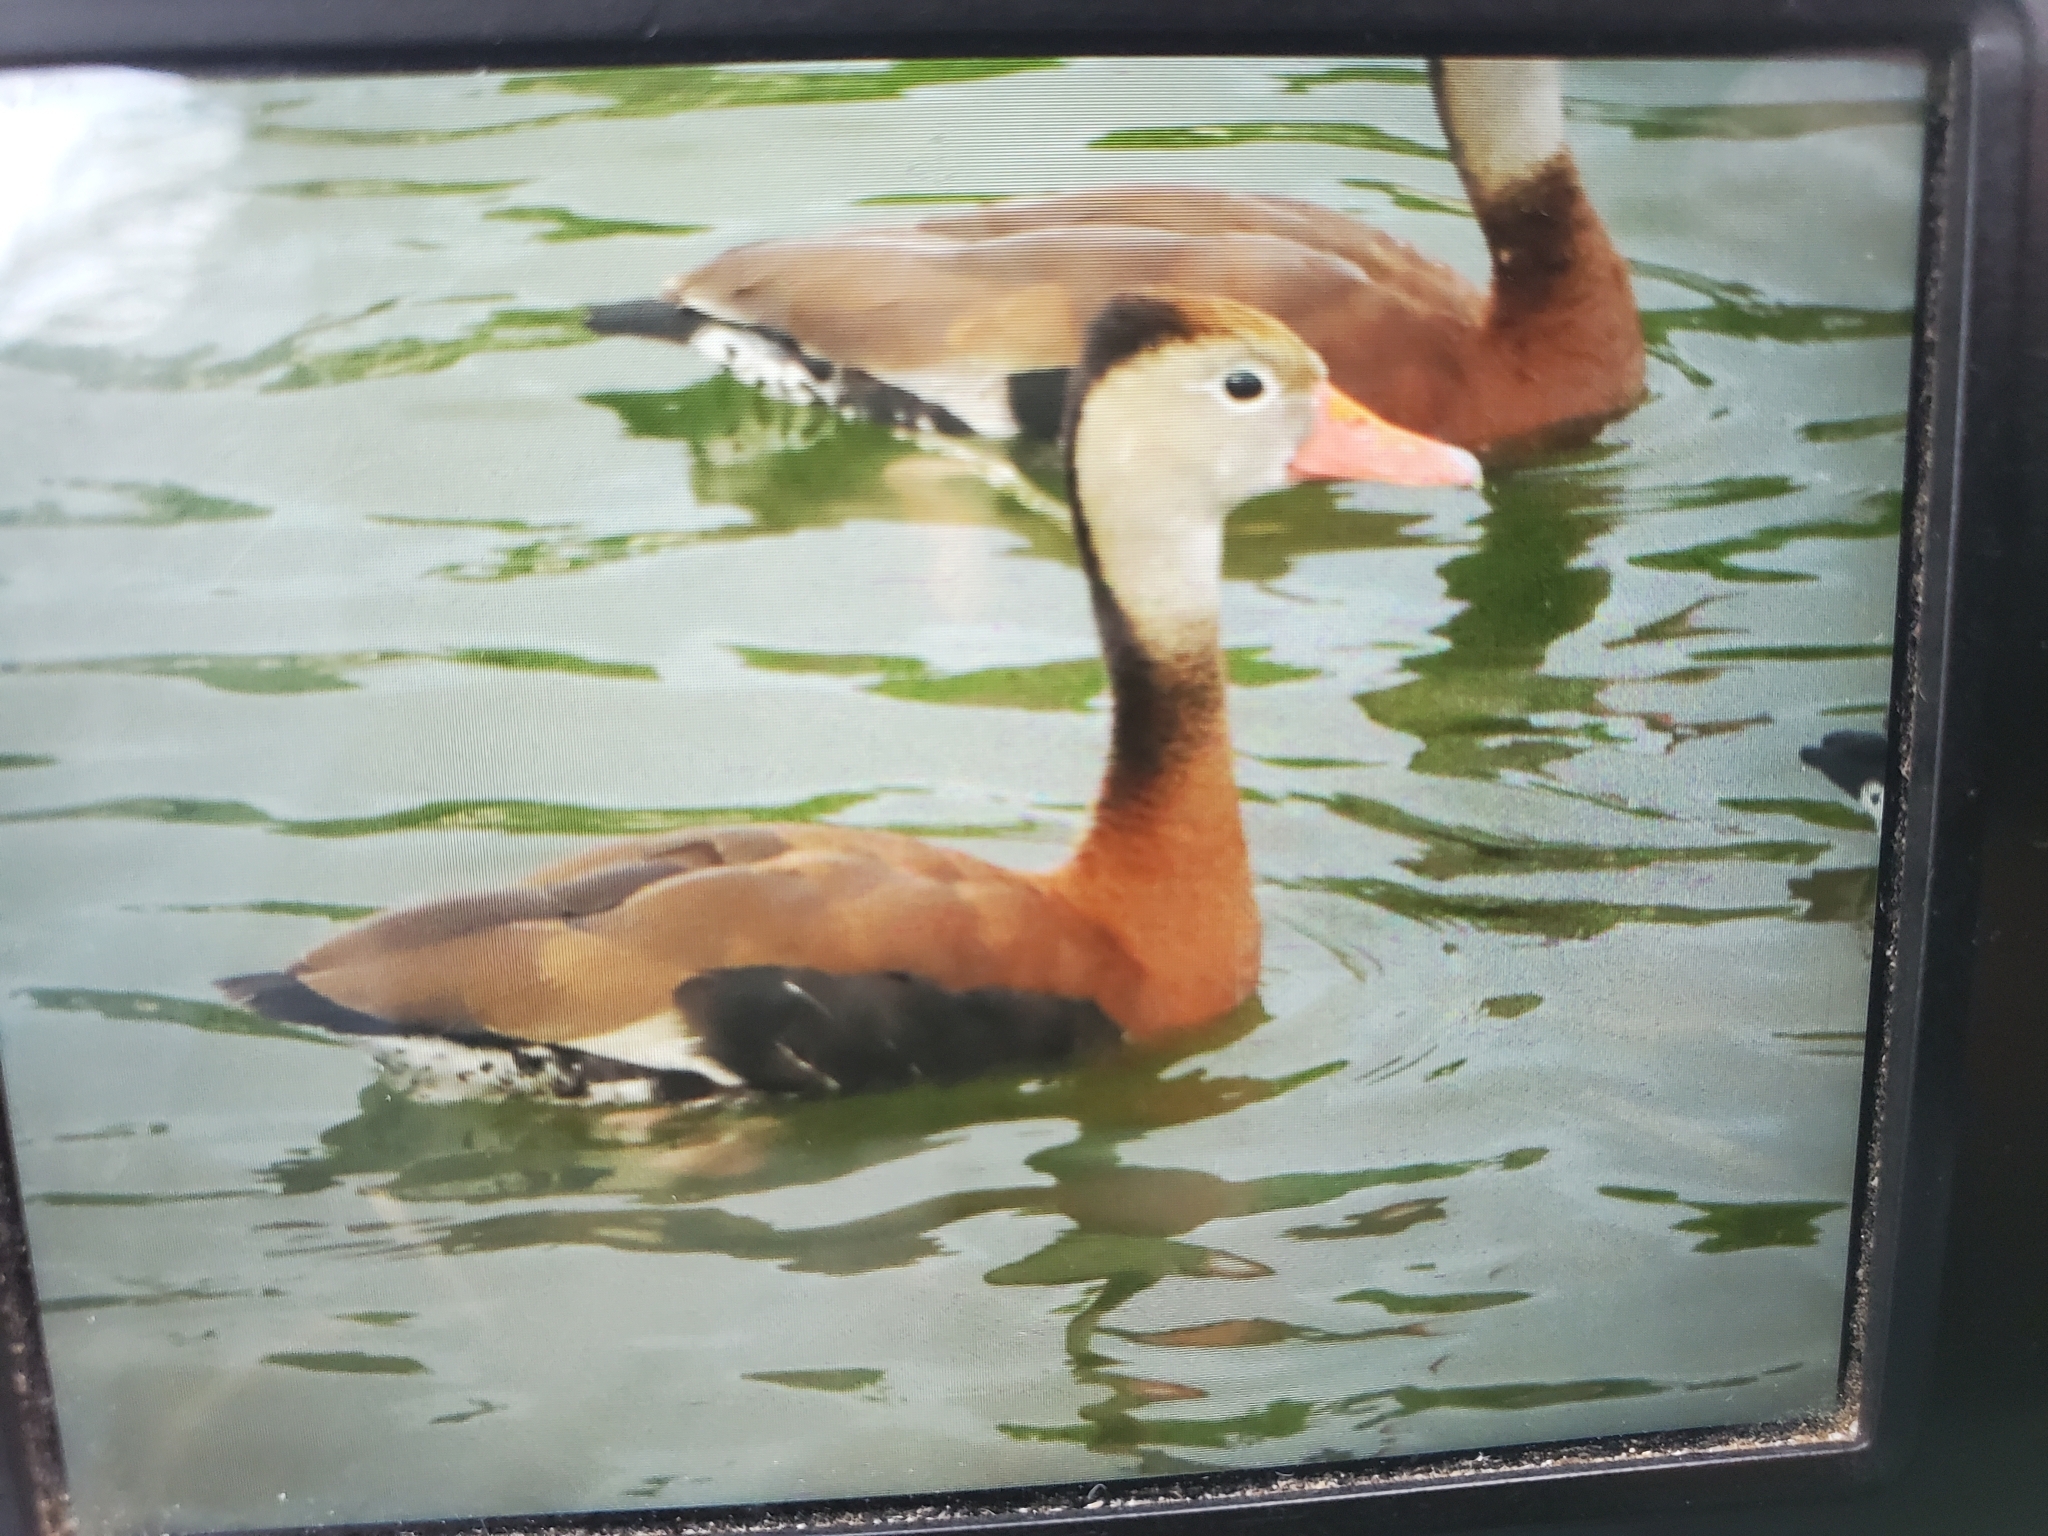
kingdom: Animalia
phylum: Chordata
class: Aves
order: Anseriformes
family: Anatidae
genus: Dendrocygna
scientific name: Dendrocygna autumnalis
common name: Black-bellied whistling duck
